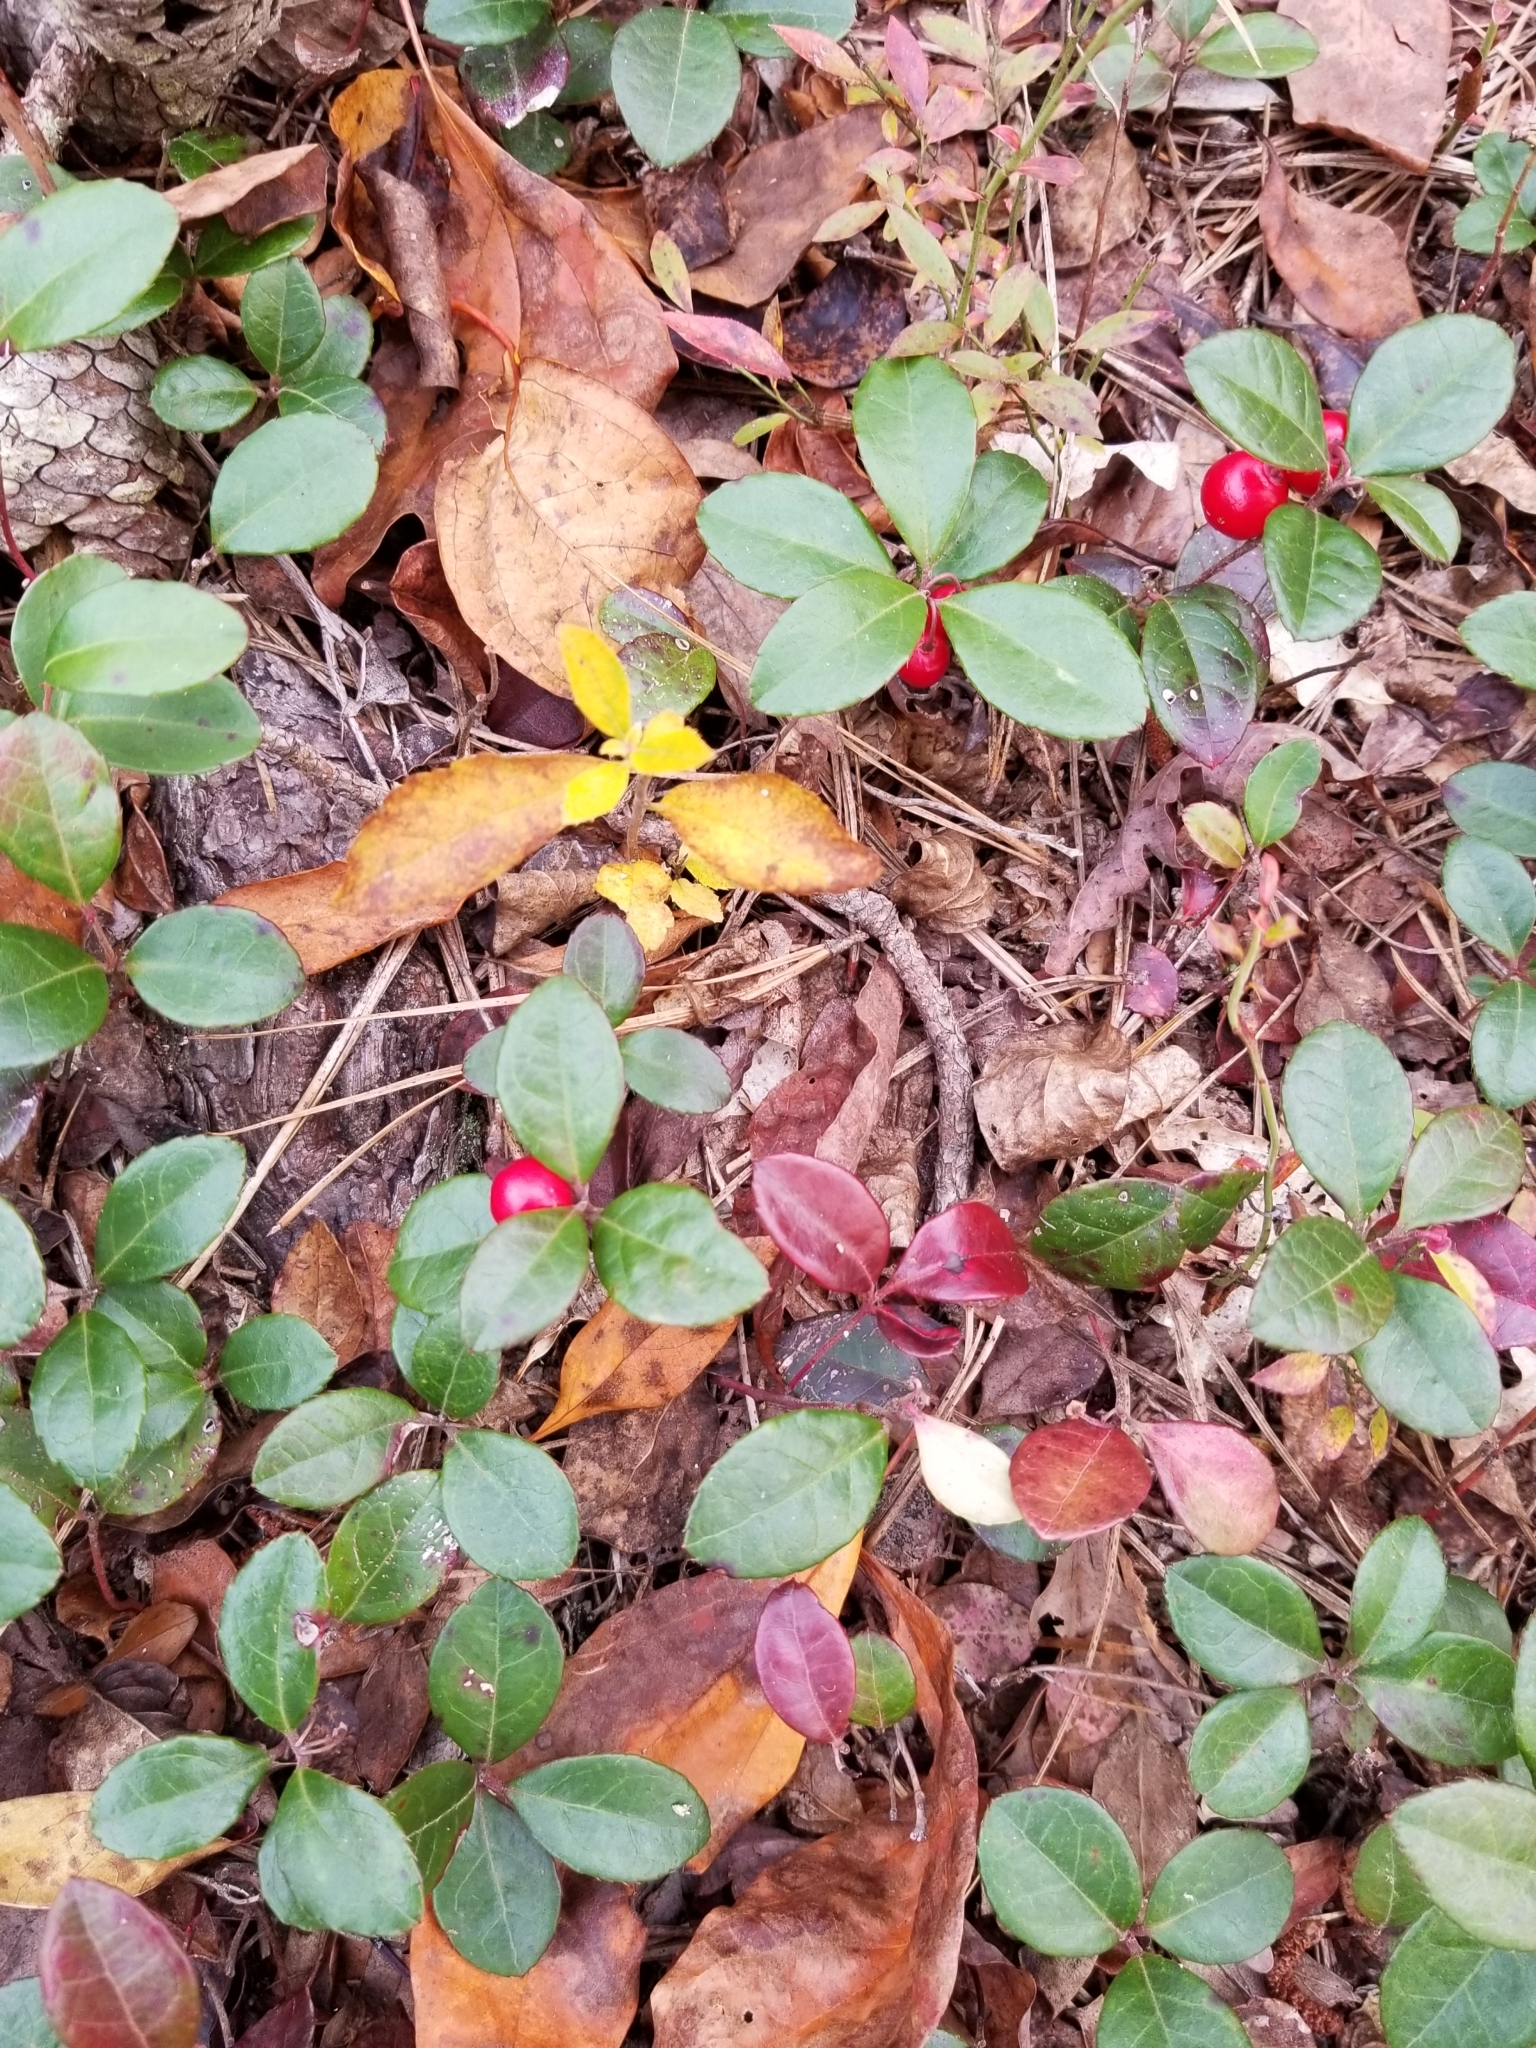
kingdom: Plantae
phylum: Tracheophyta
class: Magnoliopsida
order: Ericales
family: Ericaceae
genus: Gaultheria
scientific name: Gaultheria procumbens
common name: Checkerberry
